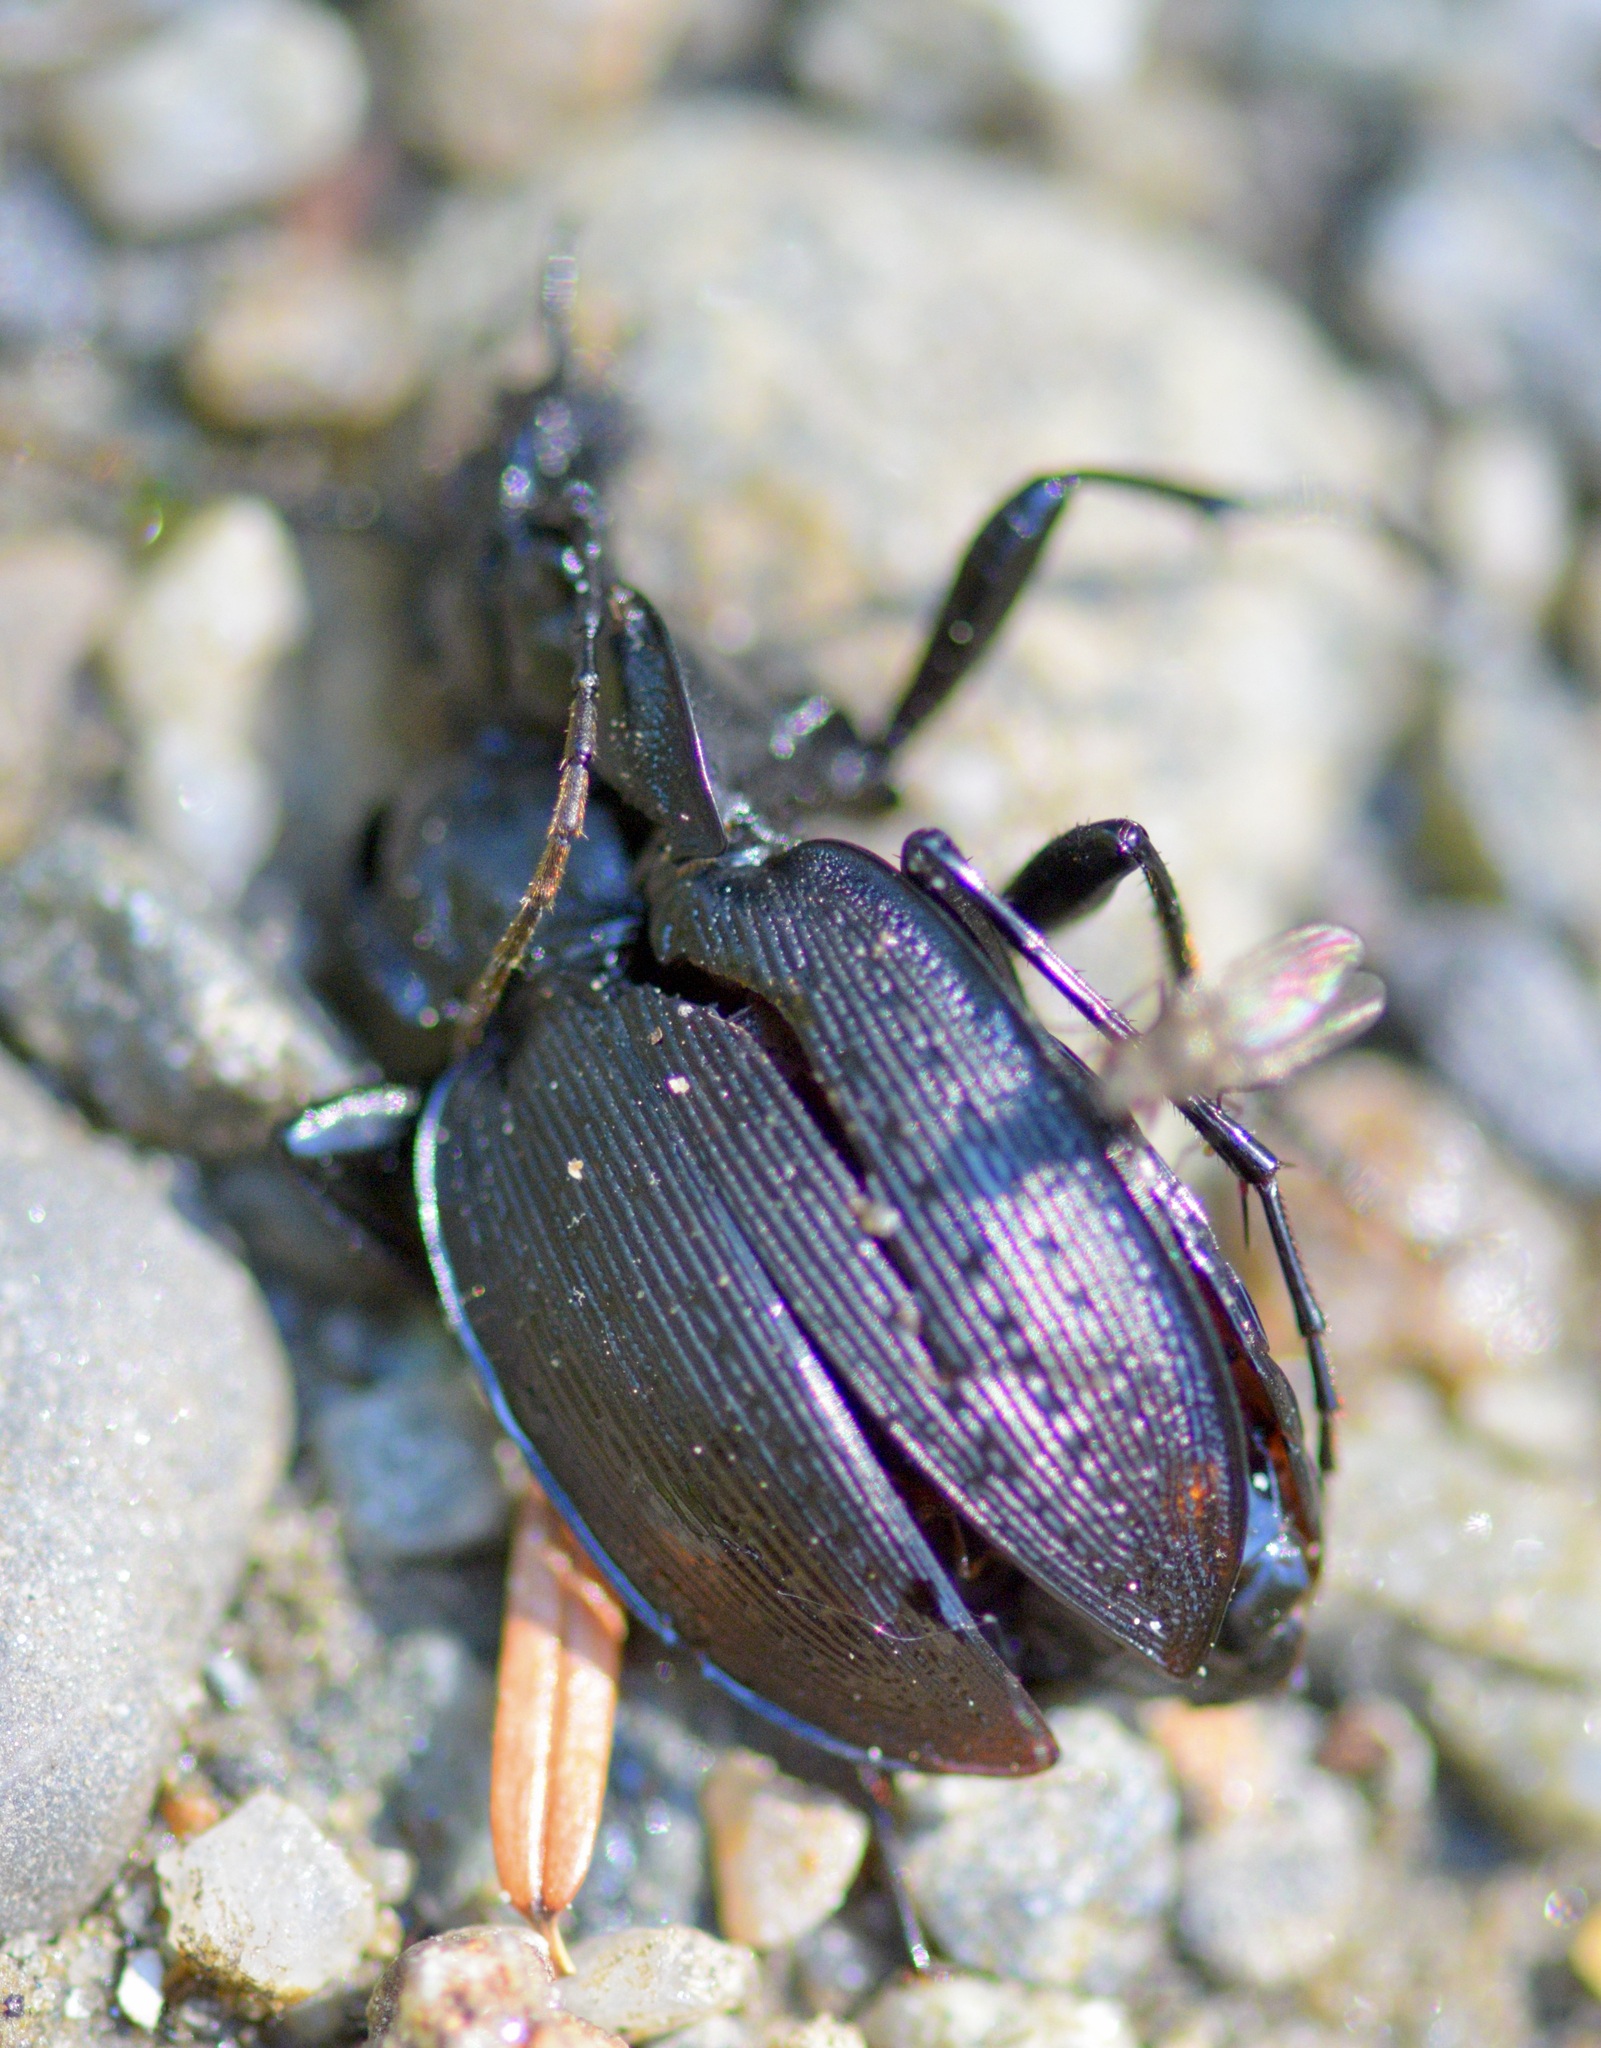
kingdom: Animalia
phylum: Arthropoda
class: Insecta
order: Coleoptera
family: Carabidae
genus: Carabus
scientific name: Carabus goryi
